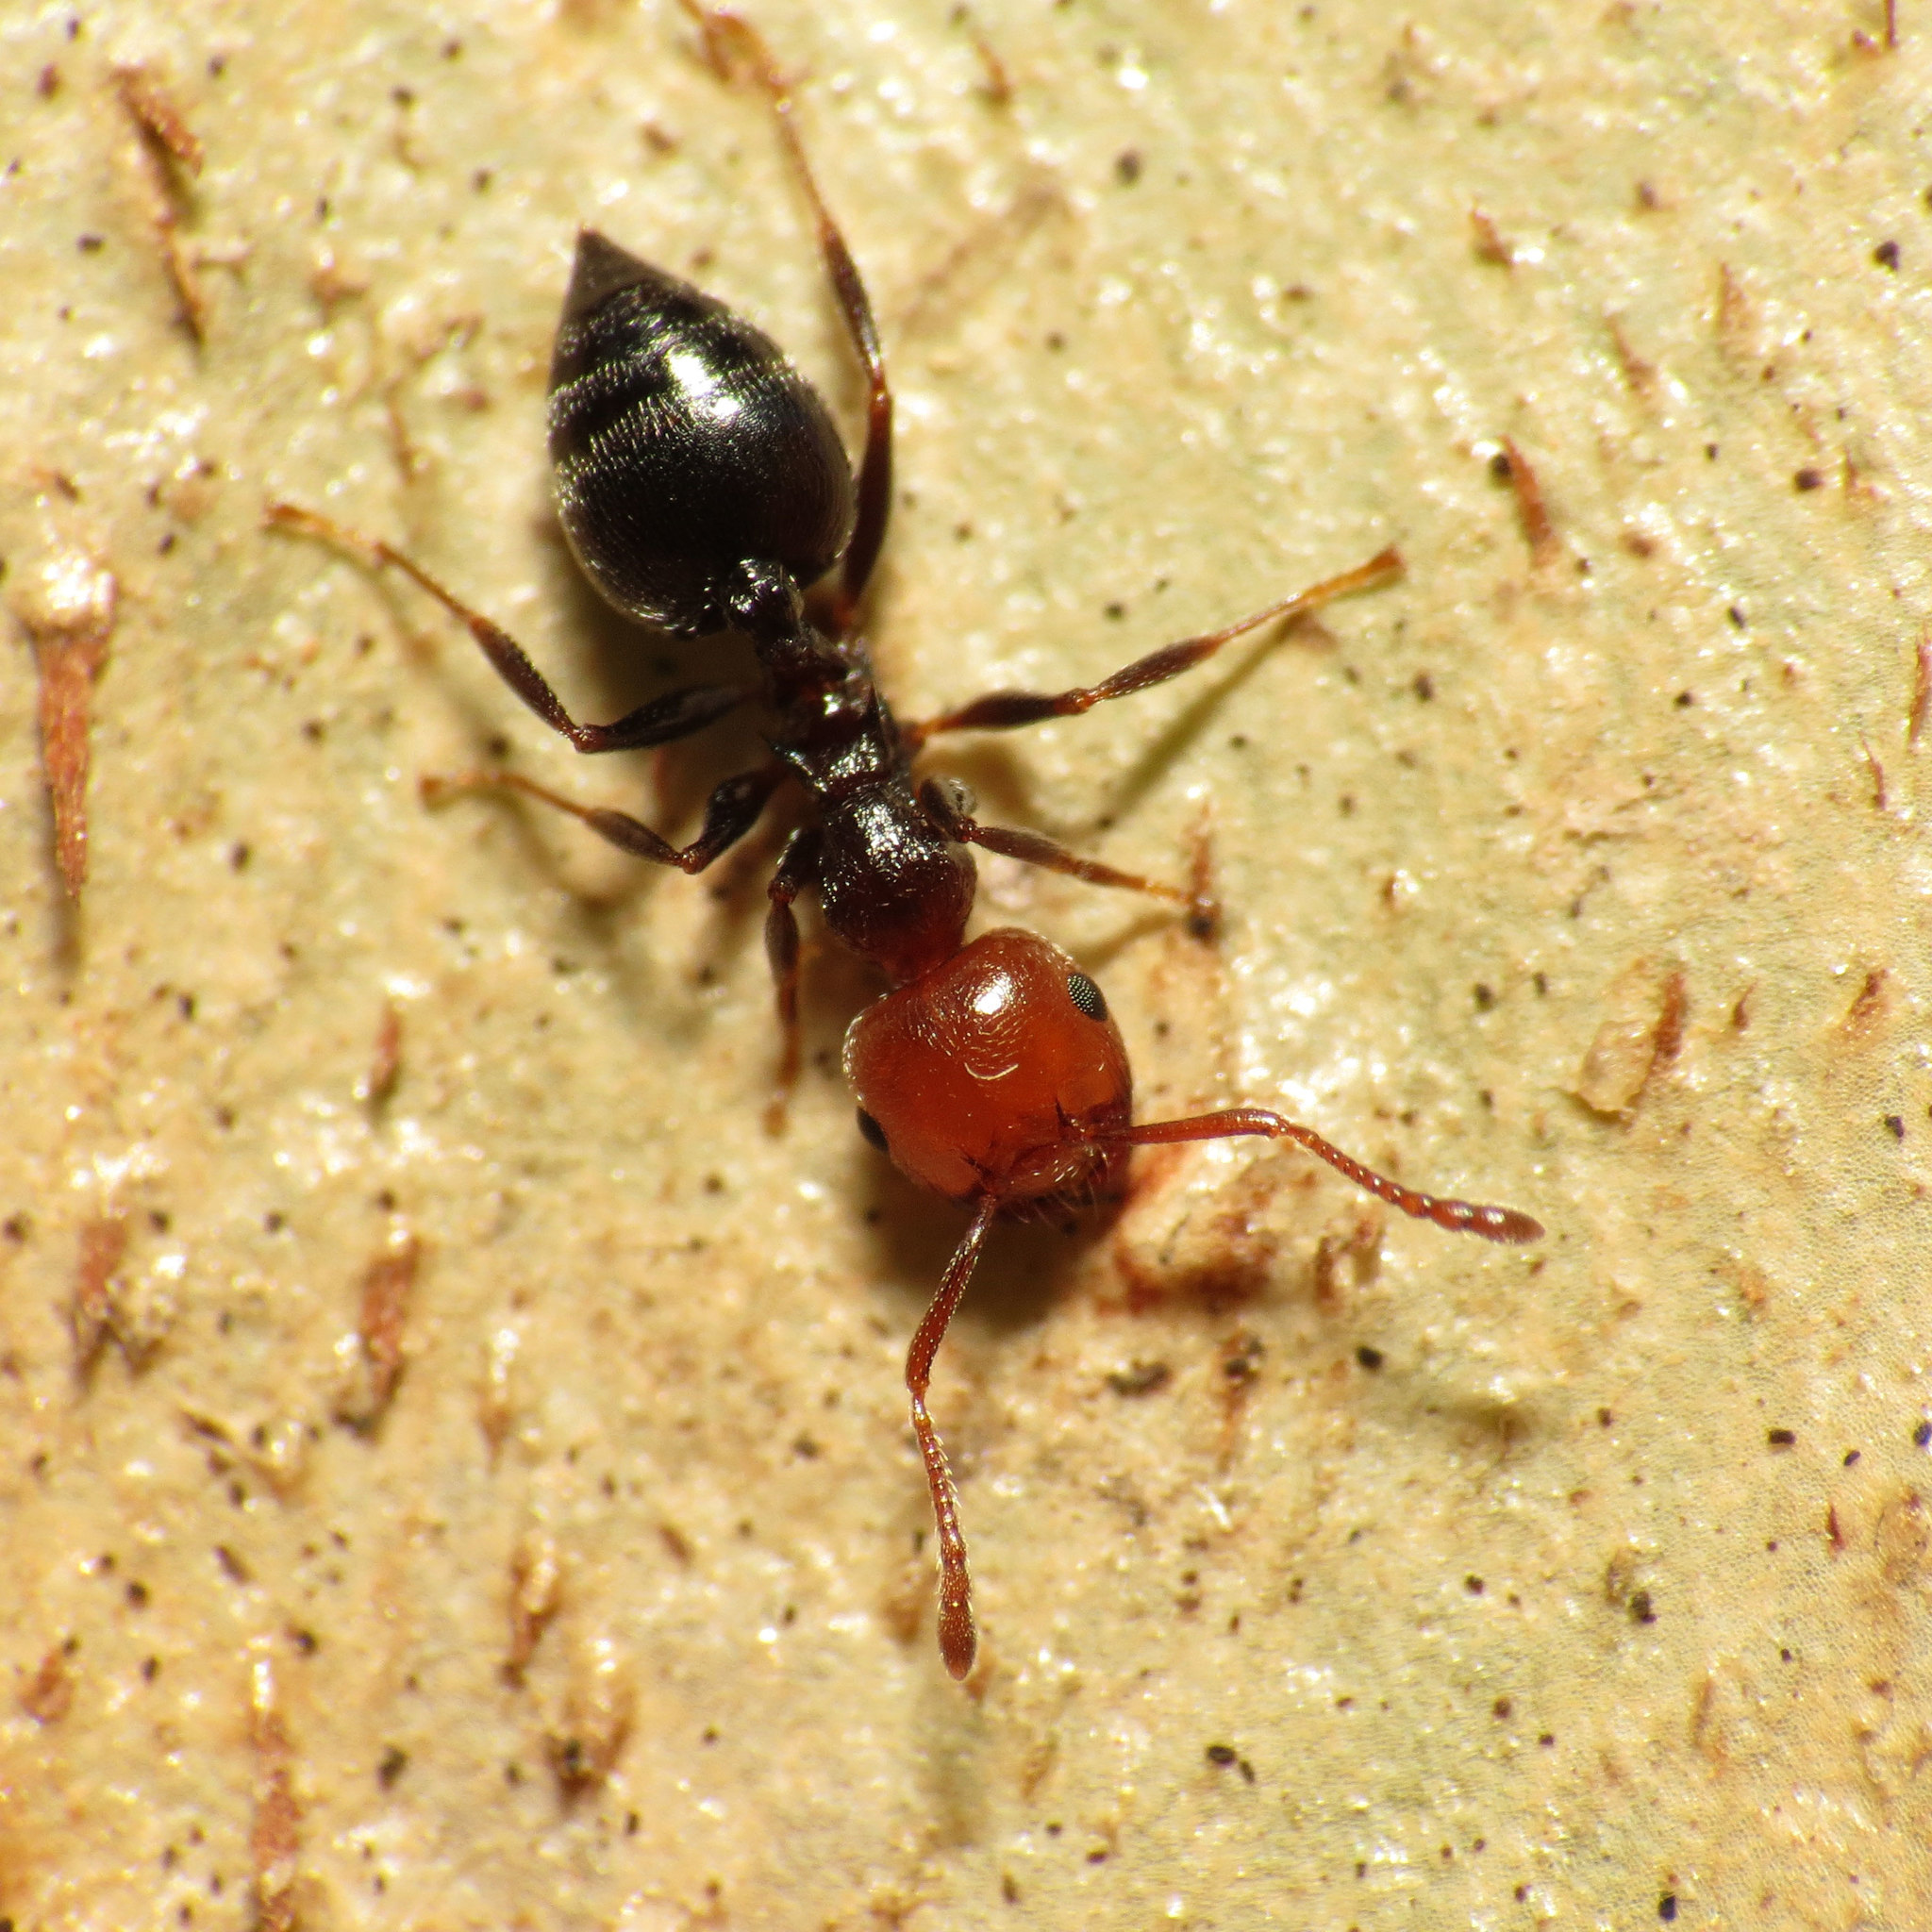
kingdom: Animalia
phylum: Arthropoda
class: Insecta
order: Hymenoptera
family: Formicidae
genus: Crematogaster
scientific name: Crematogaster scutellaris
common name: Fourmi du liège
